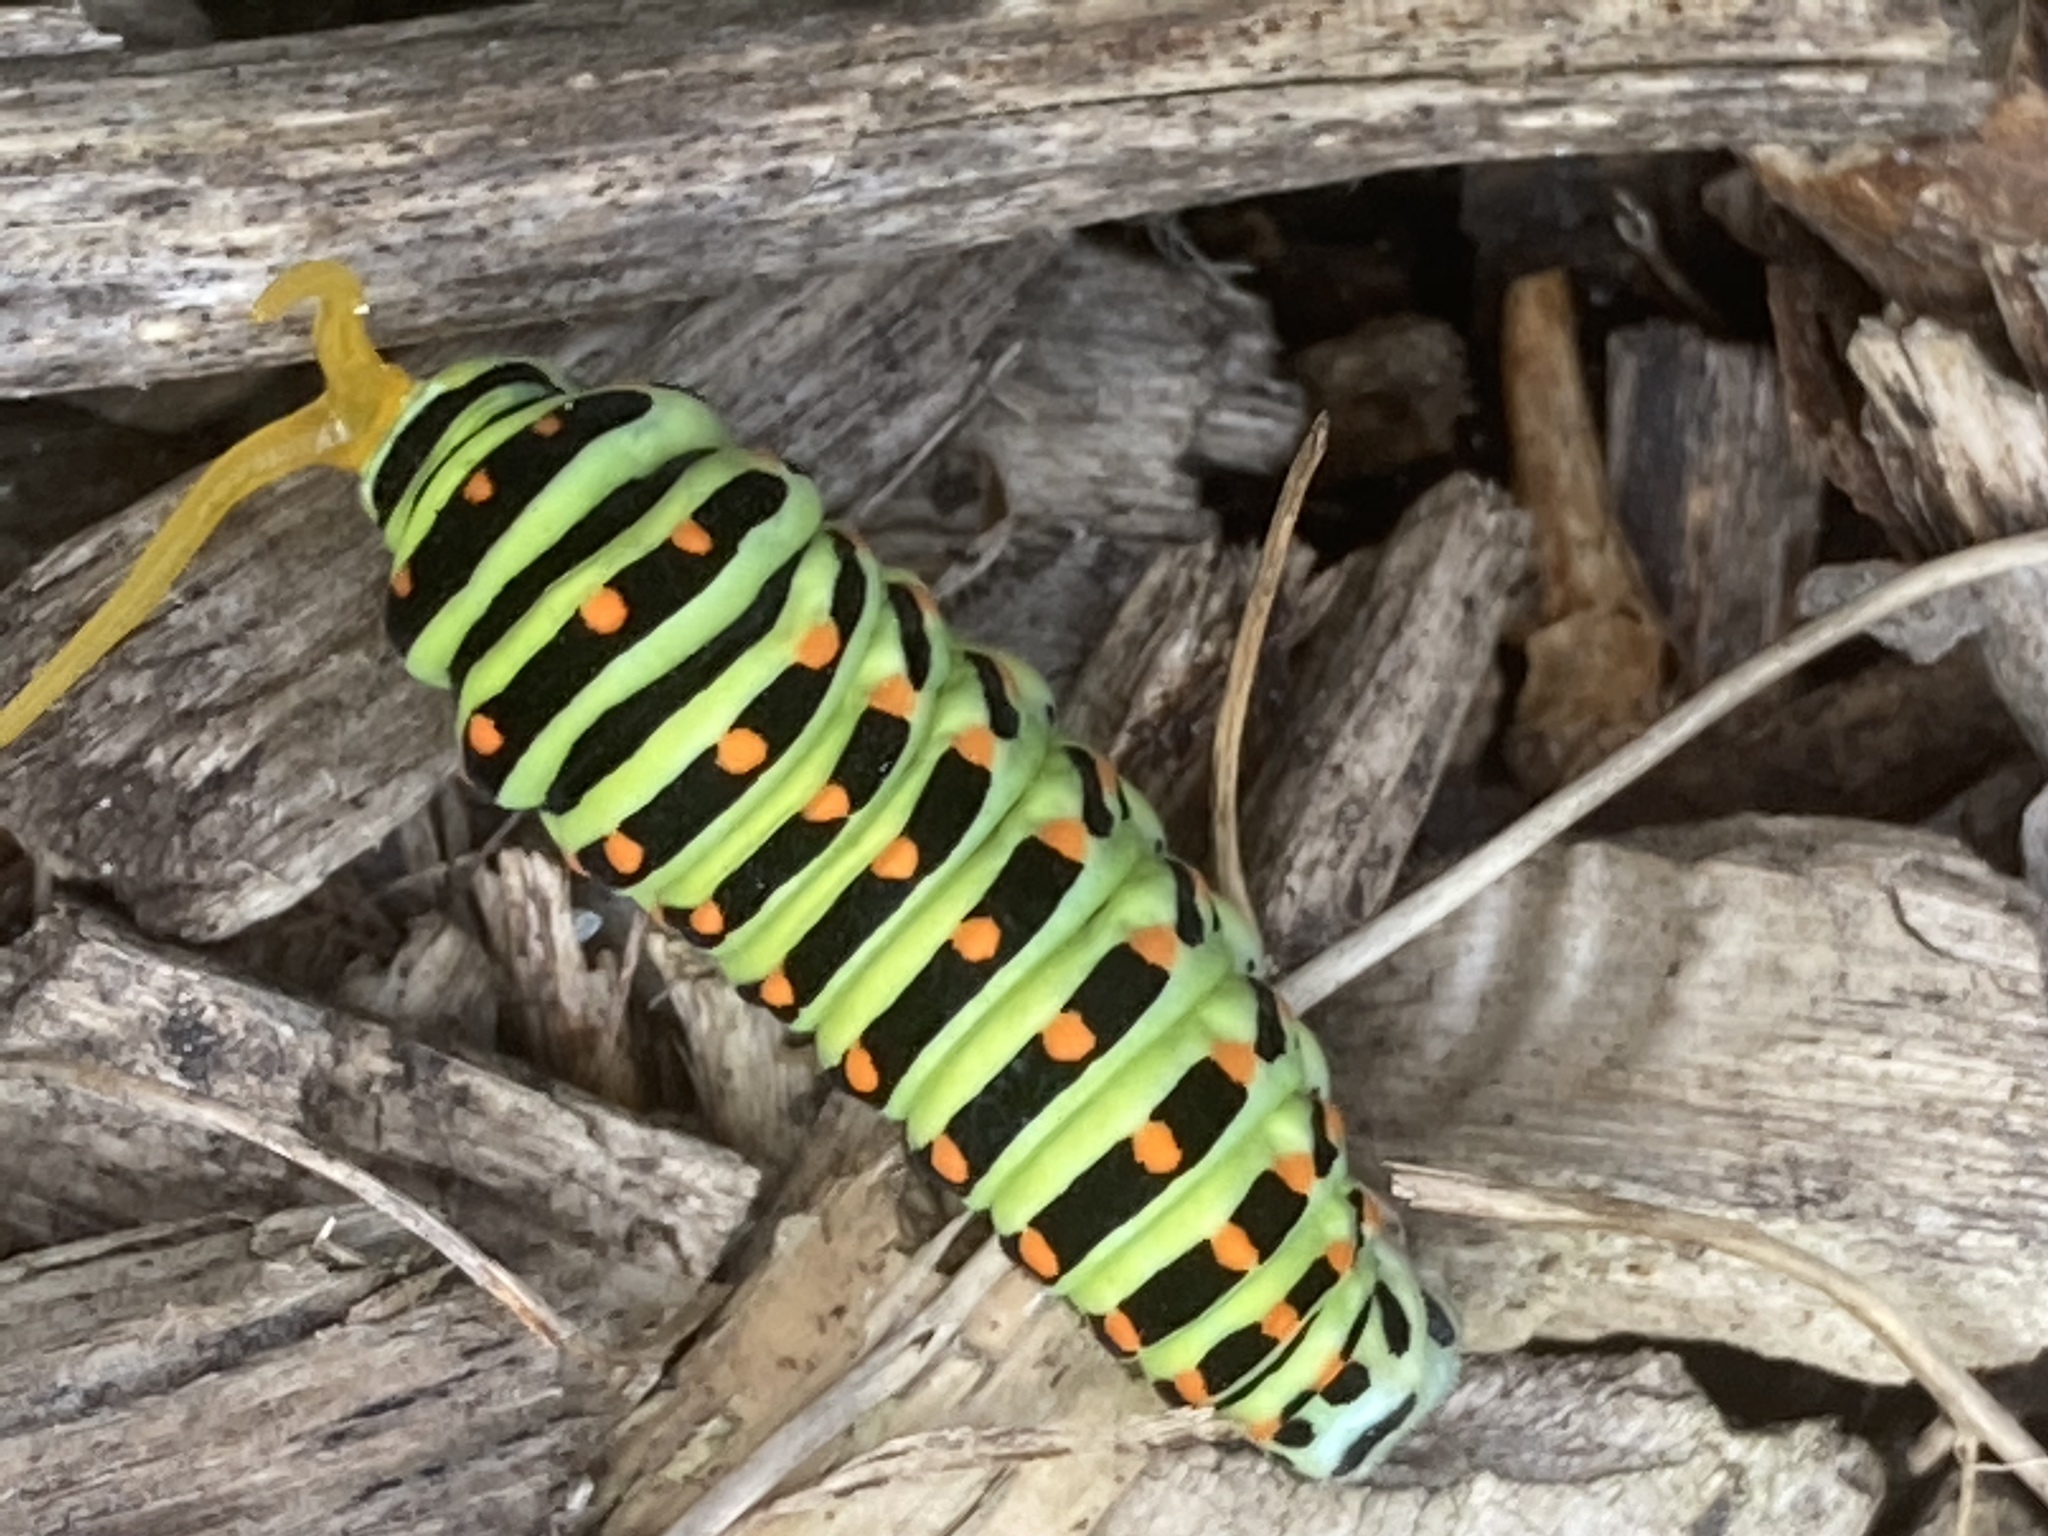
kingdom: Animalia
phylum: Arthropoda
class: Insecta
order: Lepidoptera
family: Papilionidae
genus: Papilio
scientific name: Papilio machaon
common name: Swallowtail
